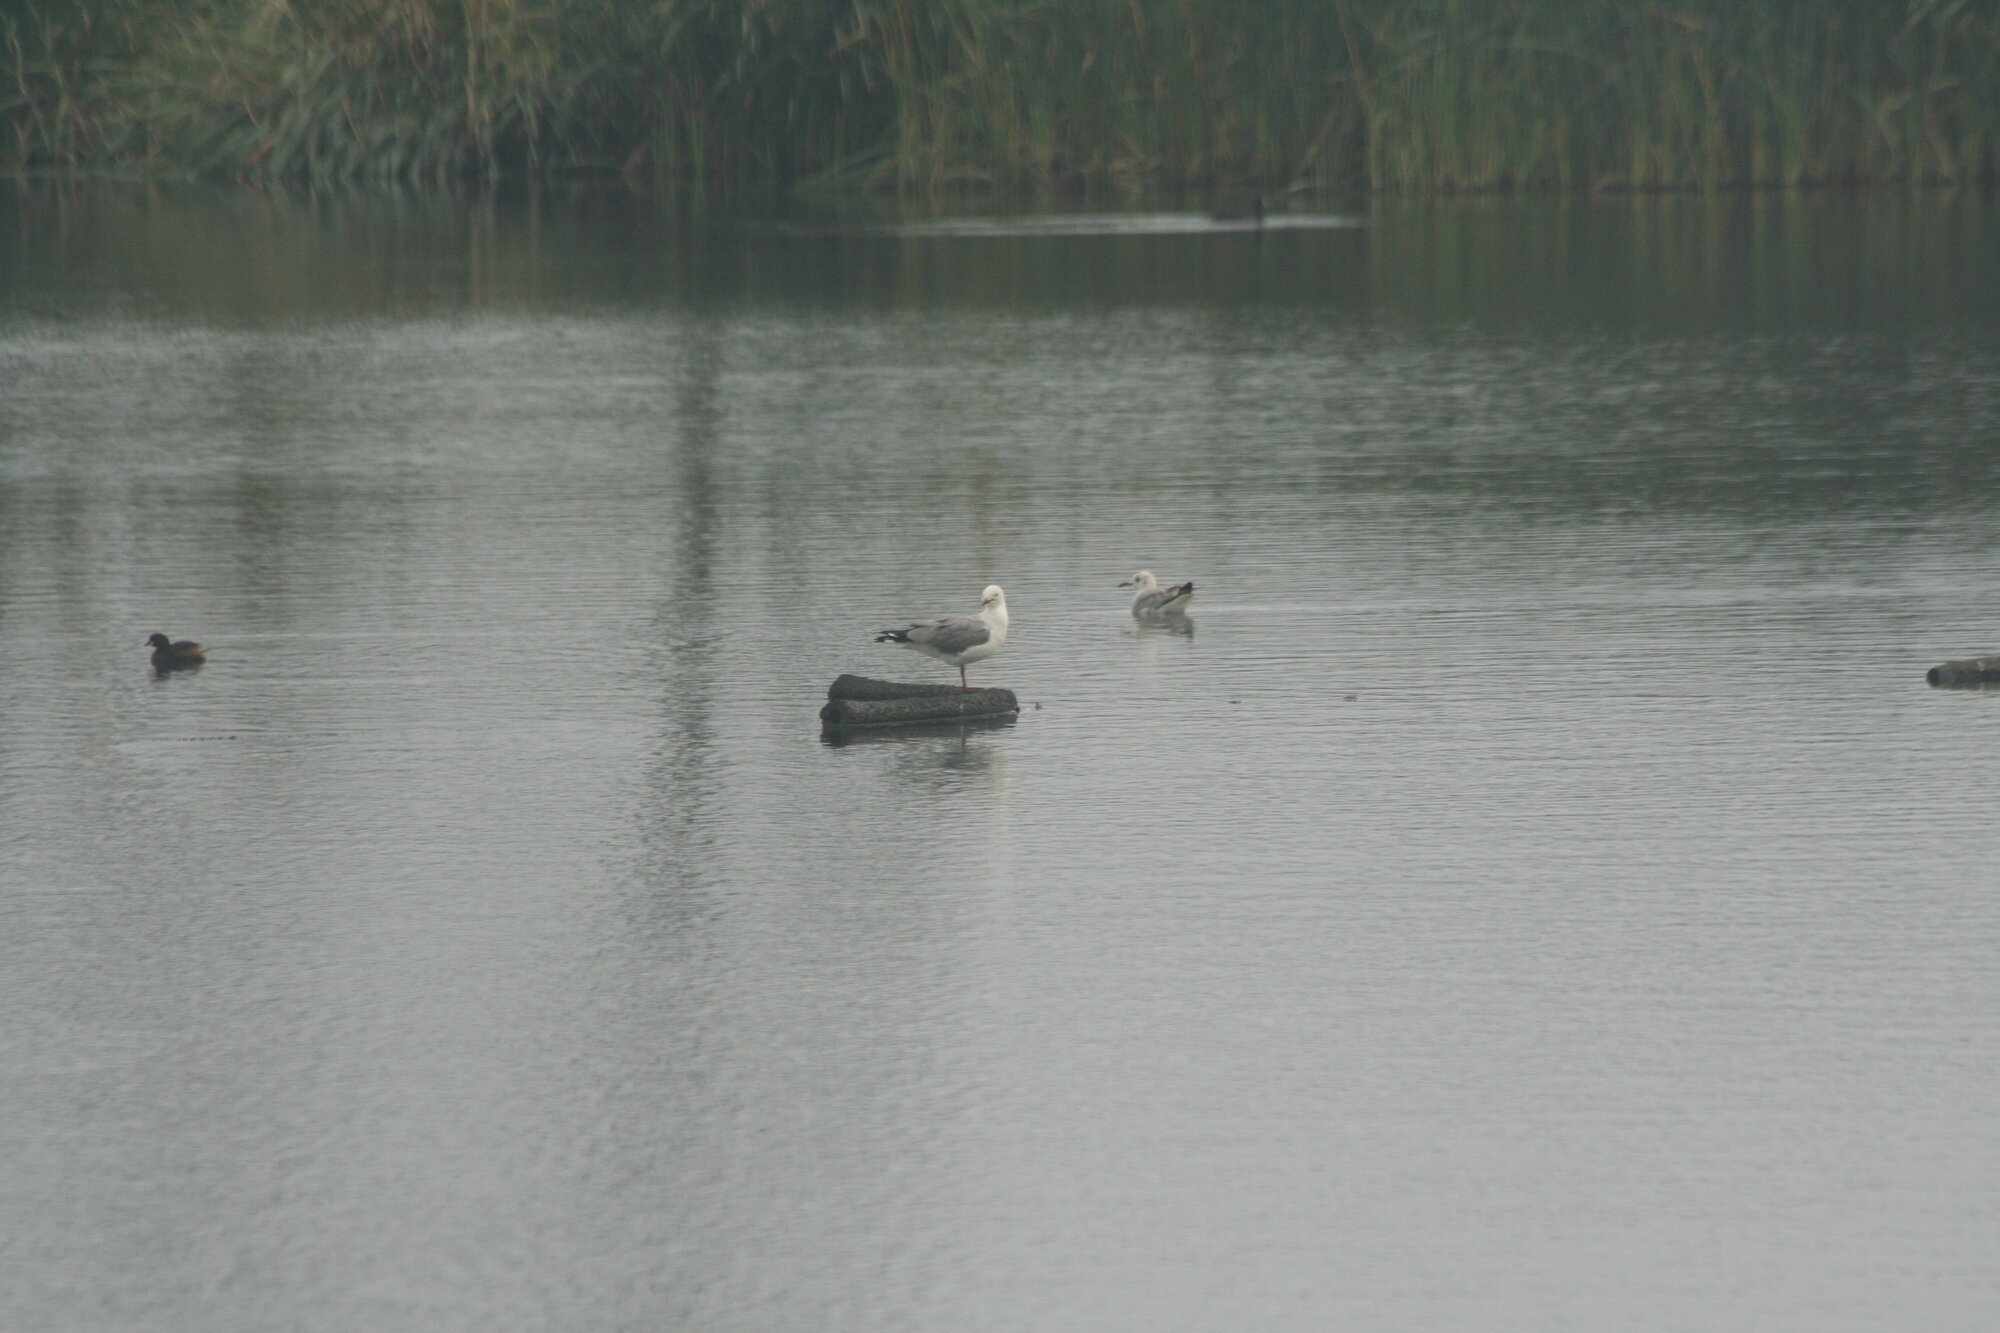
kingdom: Animalia
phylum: Chordata
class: Aves
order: Charadriiformes
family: Laridae
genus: Chroicocephalus
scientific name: Chroicocephalus hartlaubii
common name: Hartlaub's gull
